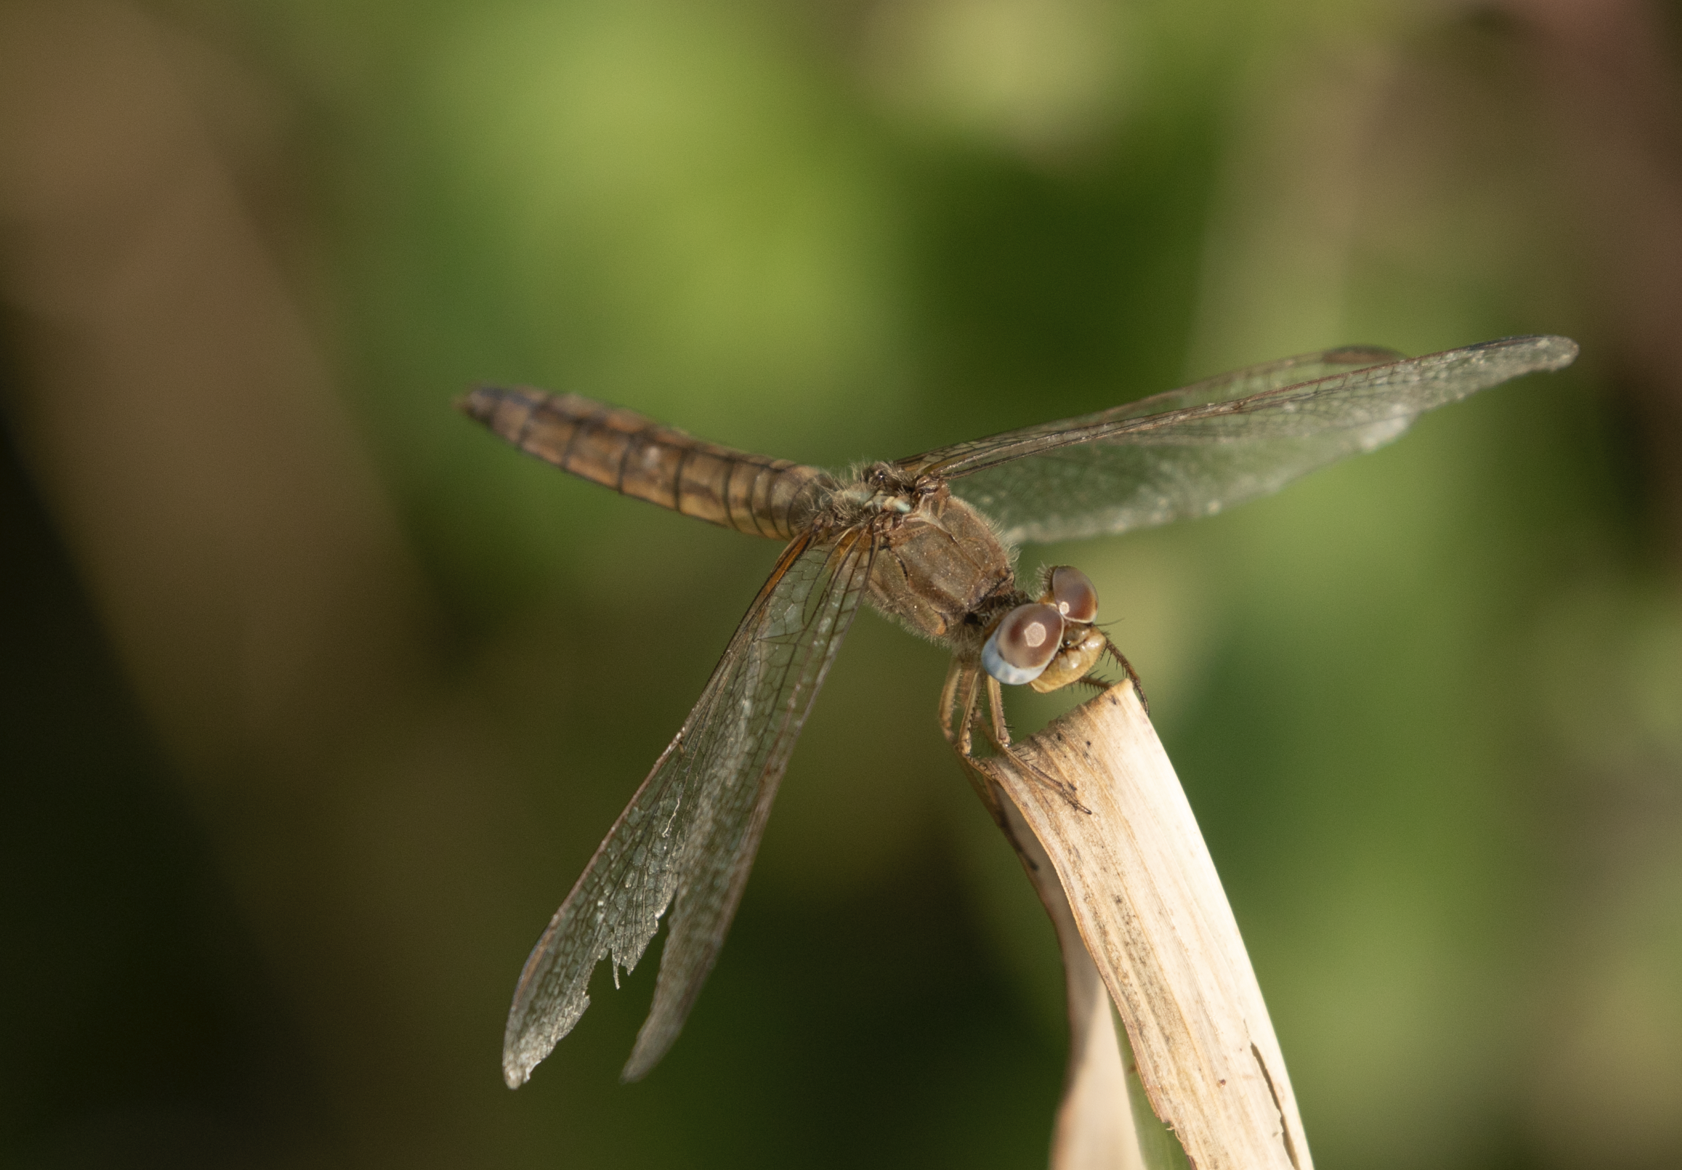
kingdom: Animalia
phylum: Arthropoda
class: Insecta
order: Odonata
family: Libellulidae
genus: Crocothemis
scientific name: Crocothemis erythraea
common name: Scarlet dragonfly
